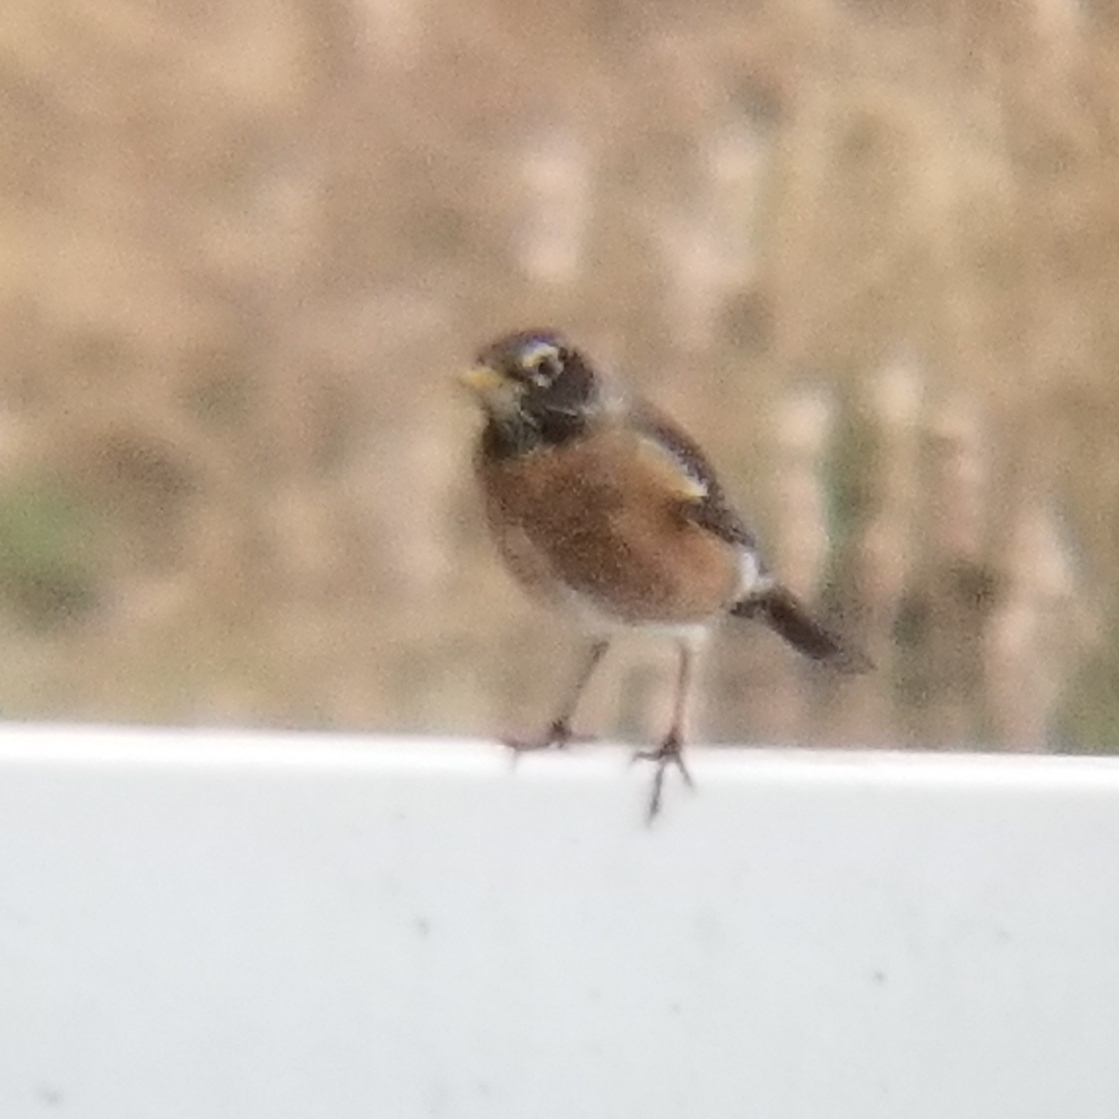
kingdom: Animalia
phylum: Chordata
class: Aves
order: Passeriformes
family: Turdidae
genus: Turdus
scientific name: Turdus migratorius
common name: American robin
